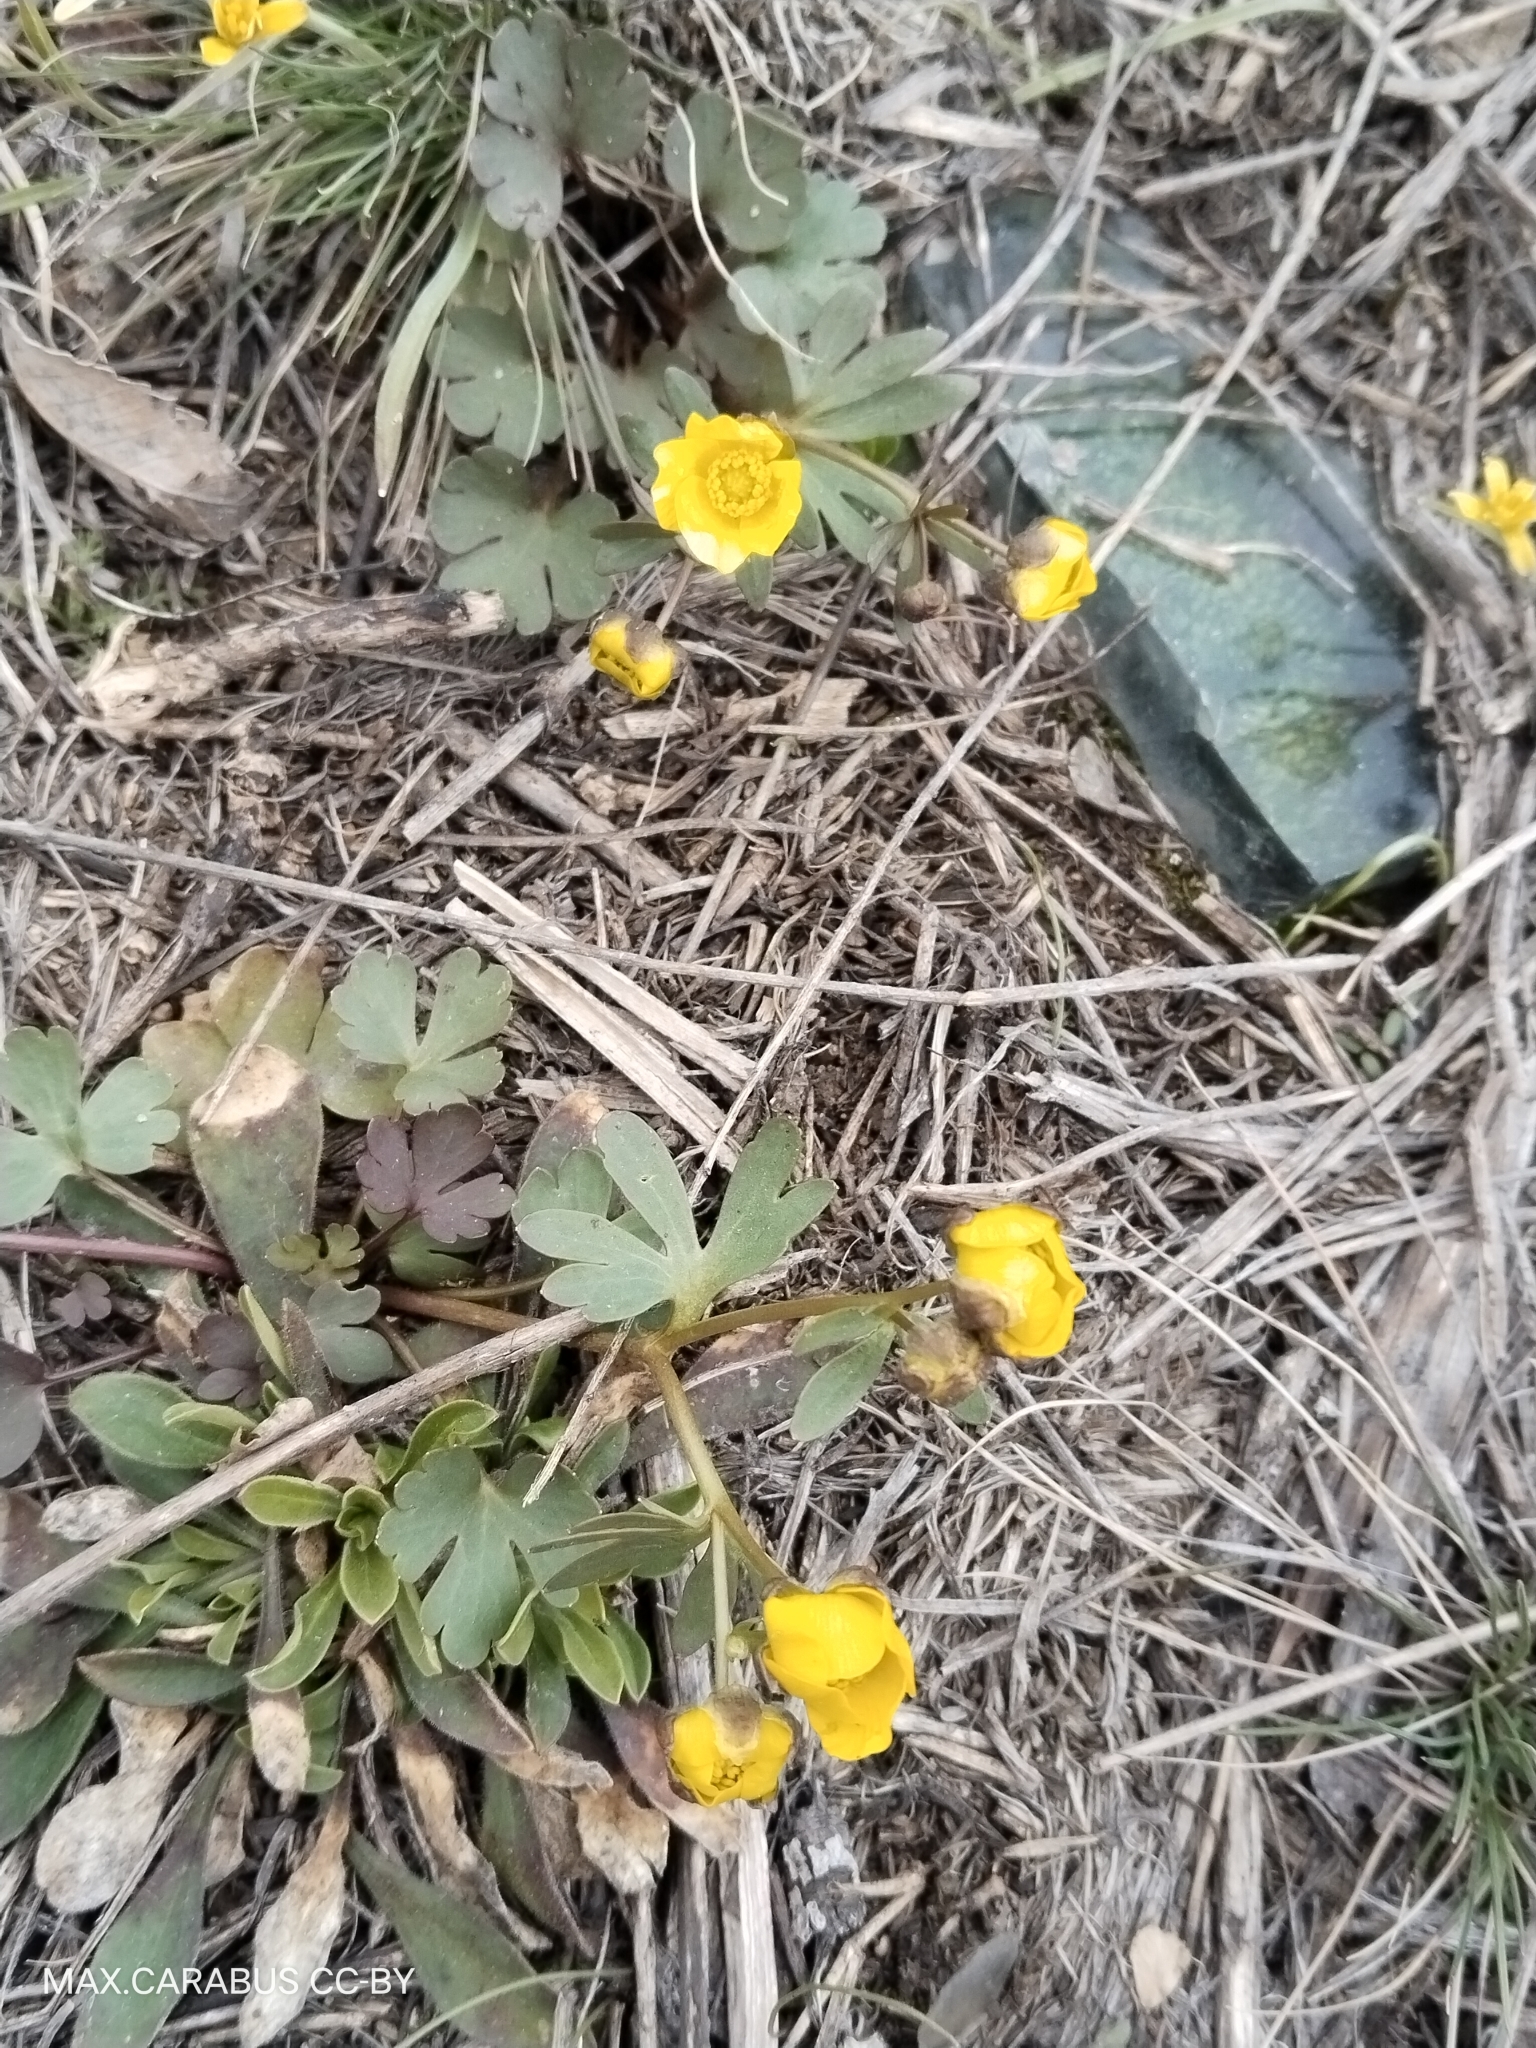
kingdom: Plantae
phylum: Tracheophyta
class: Magnoliopsida
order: Ranunculales
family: Ranunculaceae
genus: Ranunculus
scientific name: Ranunculus polyrhizos
